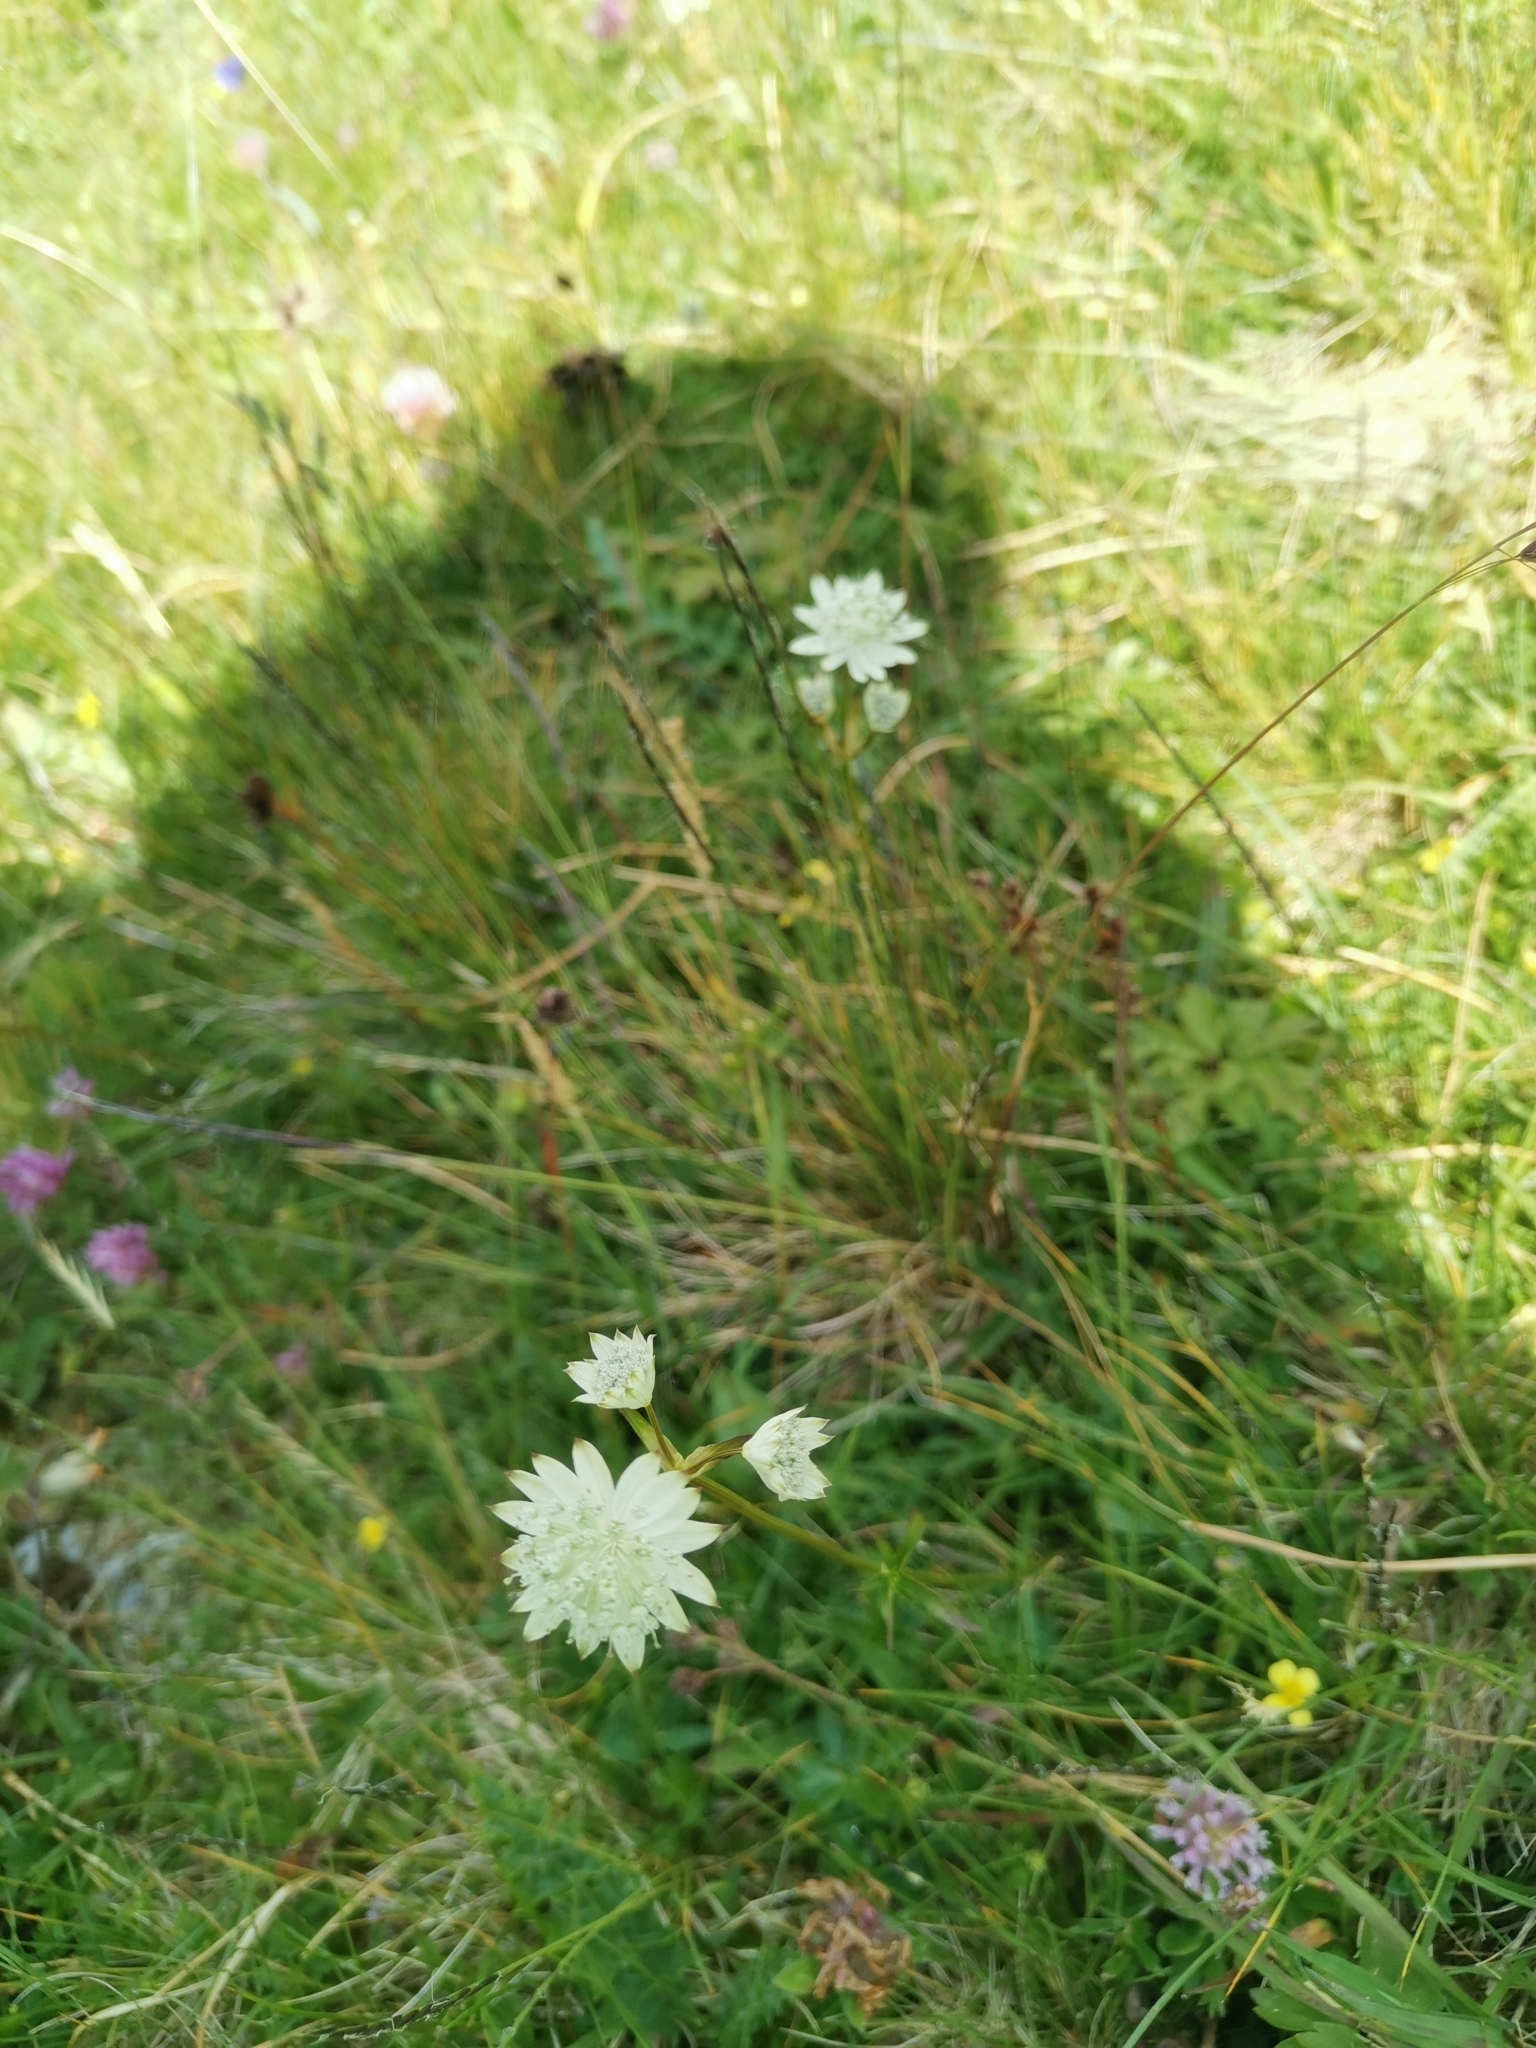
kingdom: Plantae
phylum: Tracheophyta
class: Magnoliopsida
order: Apiales
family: Apiaceae
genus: Astrantia
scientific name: Astrantia bavarica
